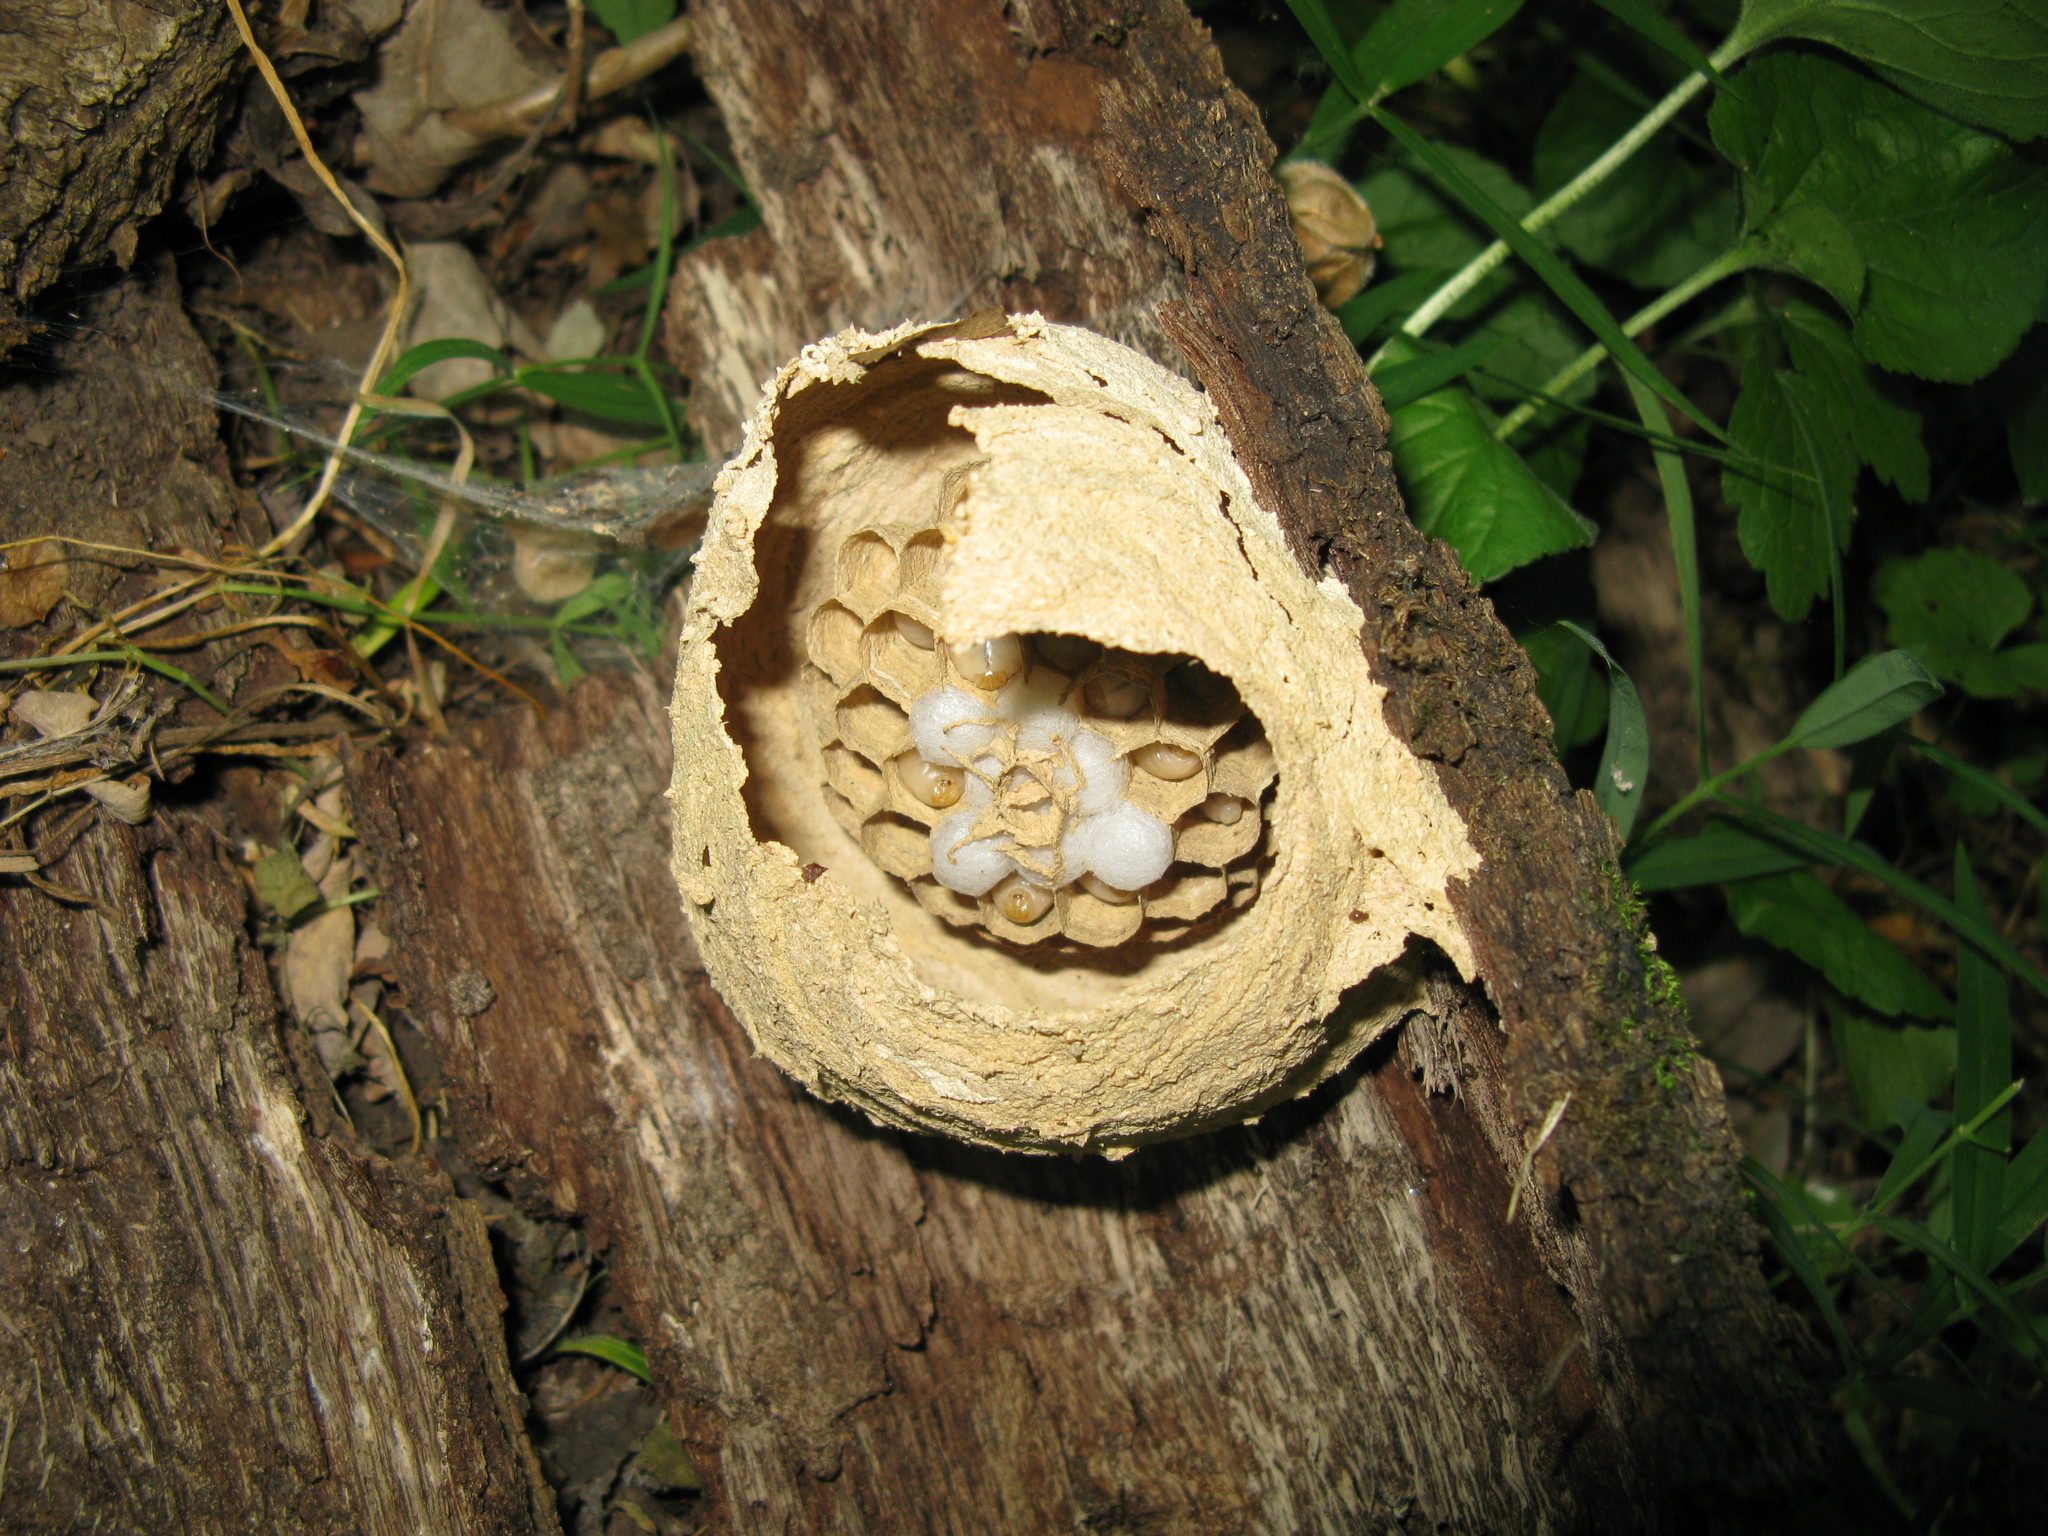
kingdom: Animalia
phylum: Arthropoda
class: Insecta
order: Hymenoptera
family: Vespidae
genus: Vespa
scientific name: Vespa crabro
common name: Hornet
